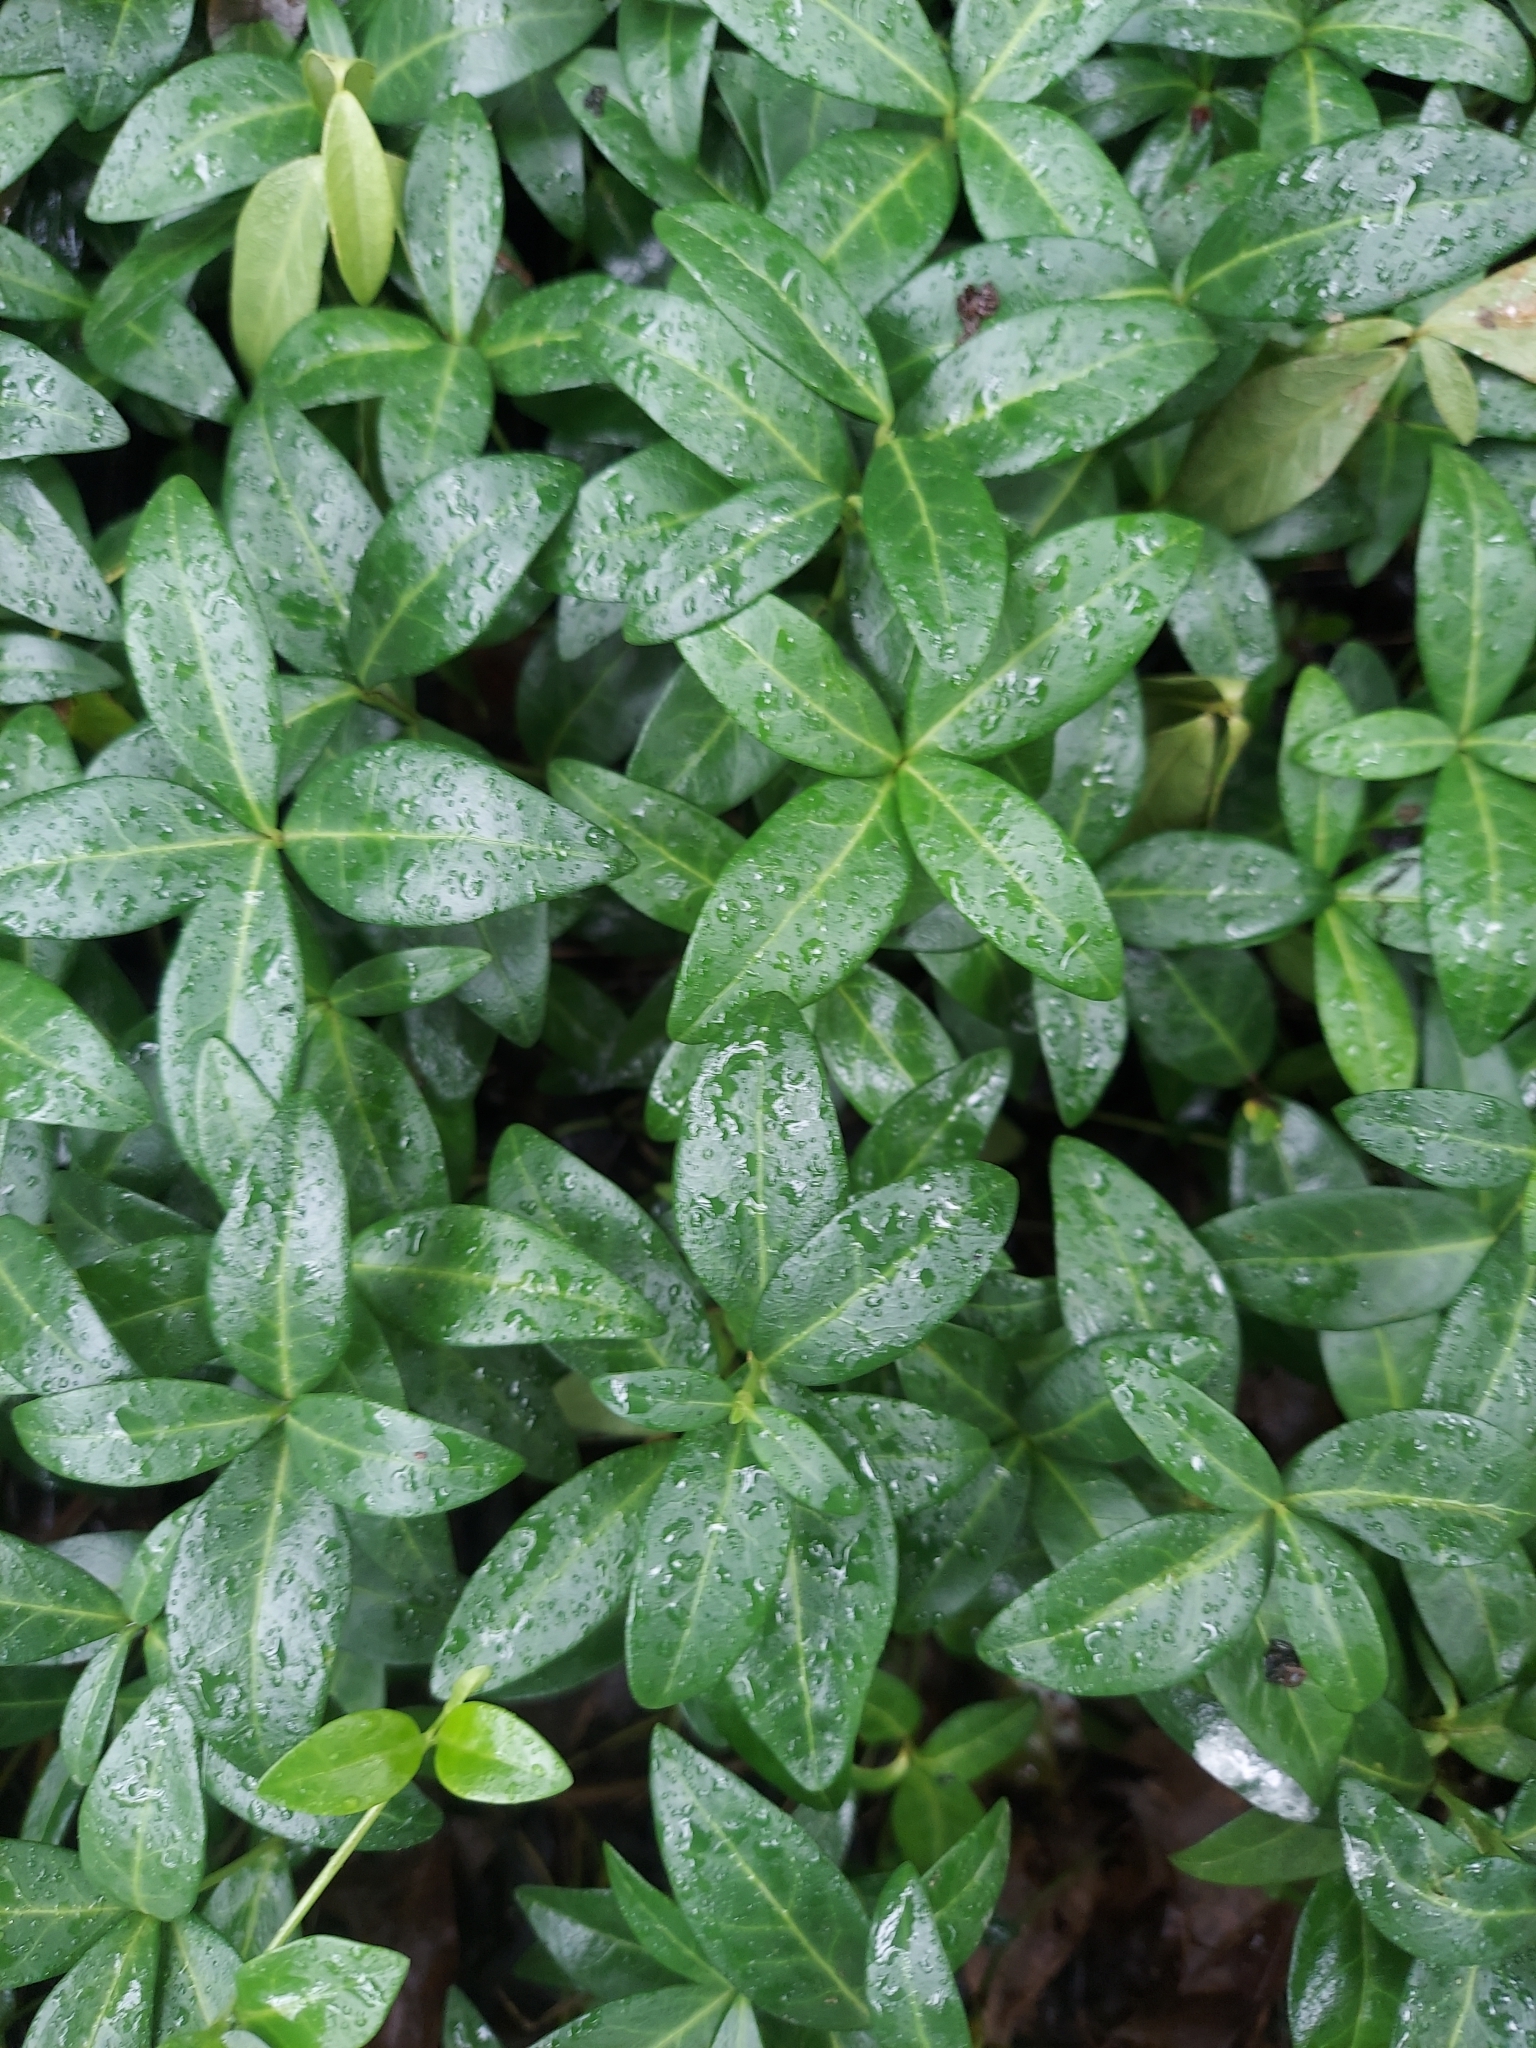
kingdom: Plantae
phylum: Tracheophyta
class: Magnoliopsida
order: Gentianales
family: Apocynaceae
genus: Vinca
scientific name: Vinca minor
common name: Lesser periwinkle
